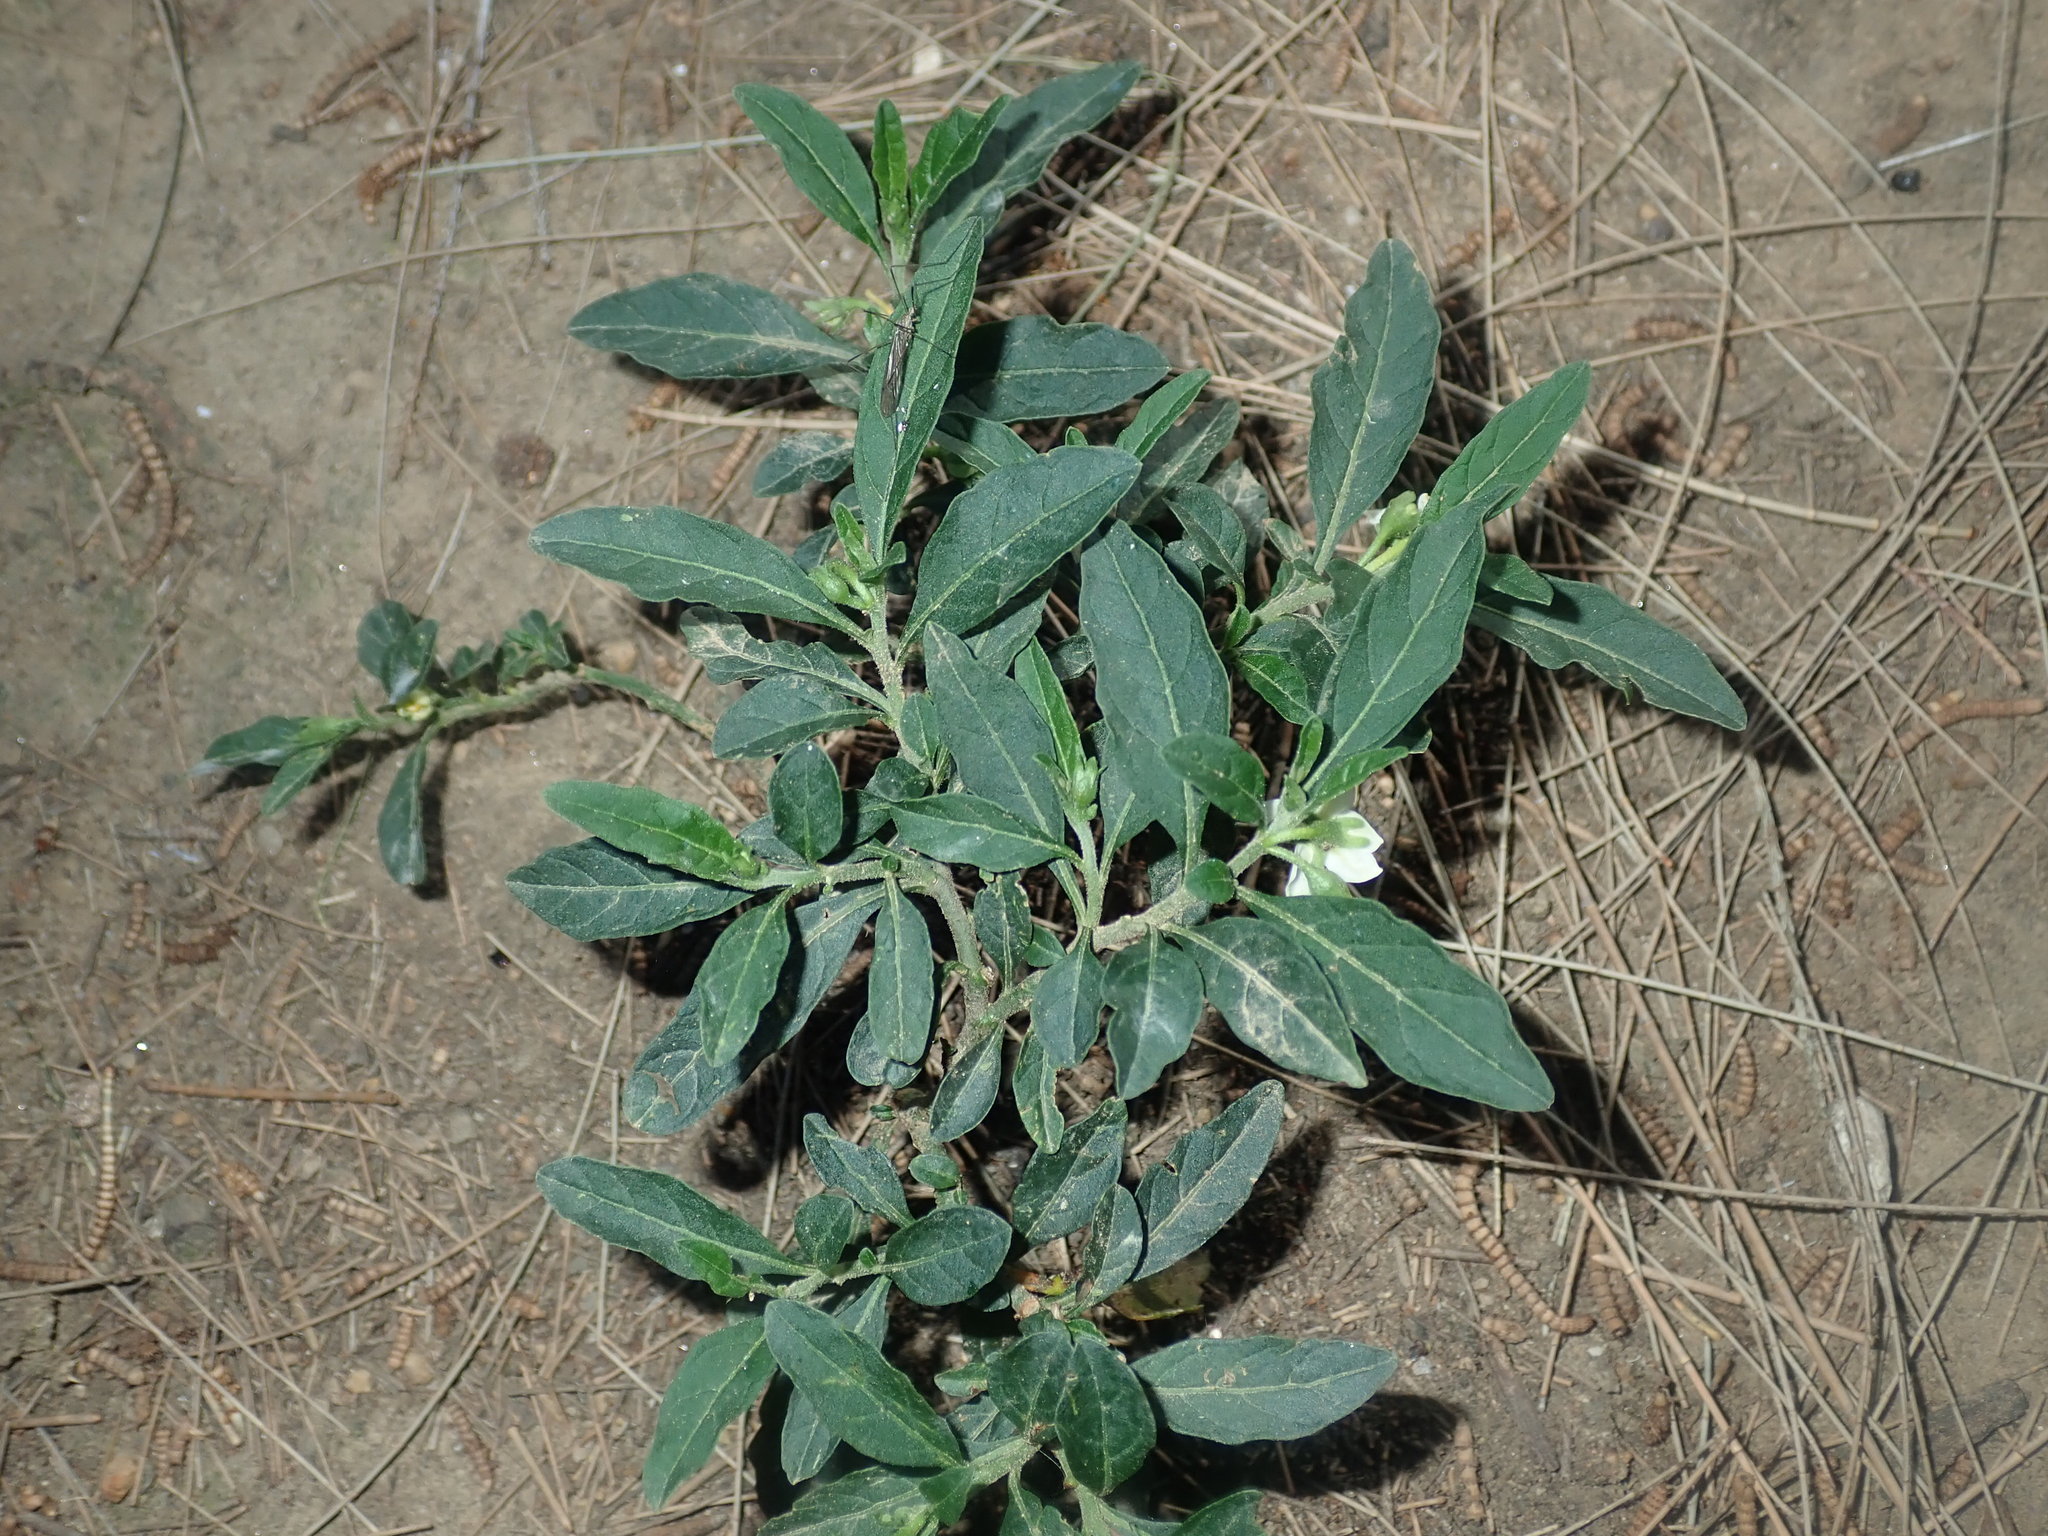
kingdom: Plantae
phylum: Tracheophyta
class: Magnoliopsida
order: Solanales
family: Solanaceae
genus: Solanum
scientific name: Solanum pseudocapsicum
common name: Jerusalem cherry
